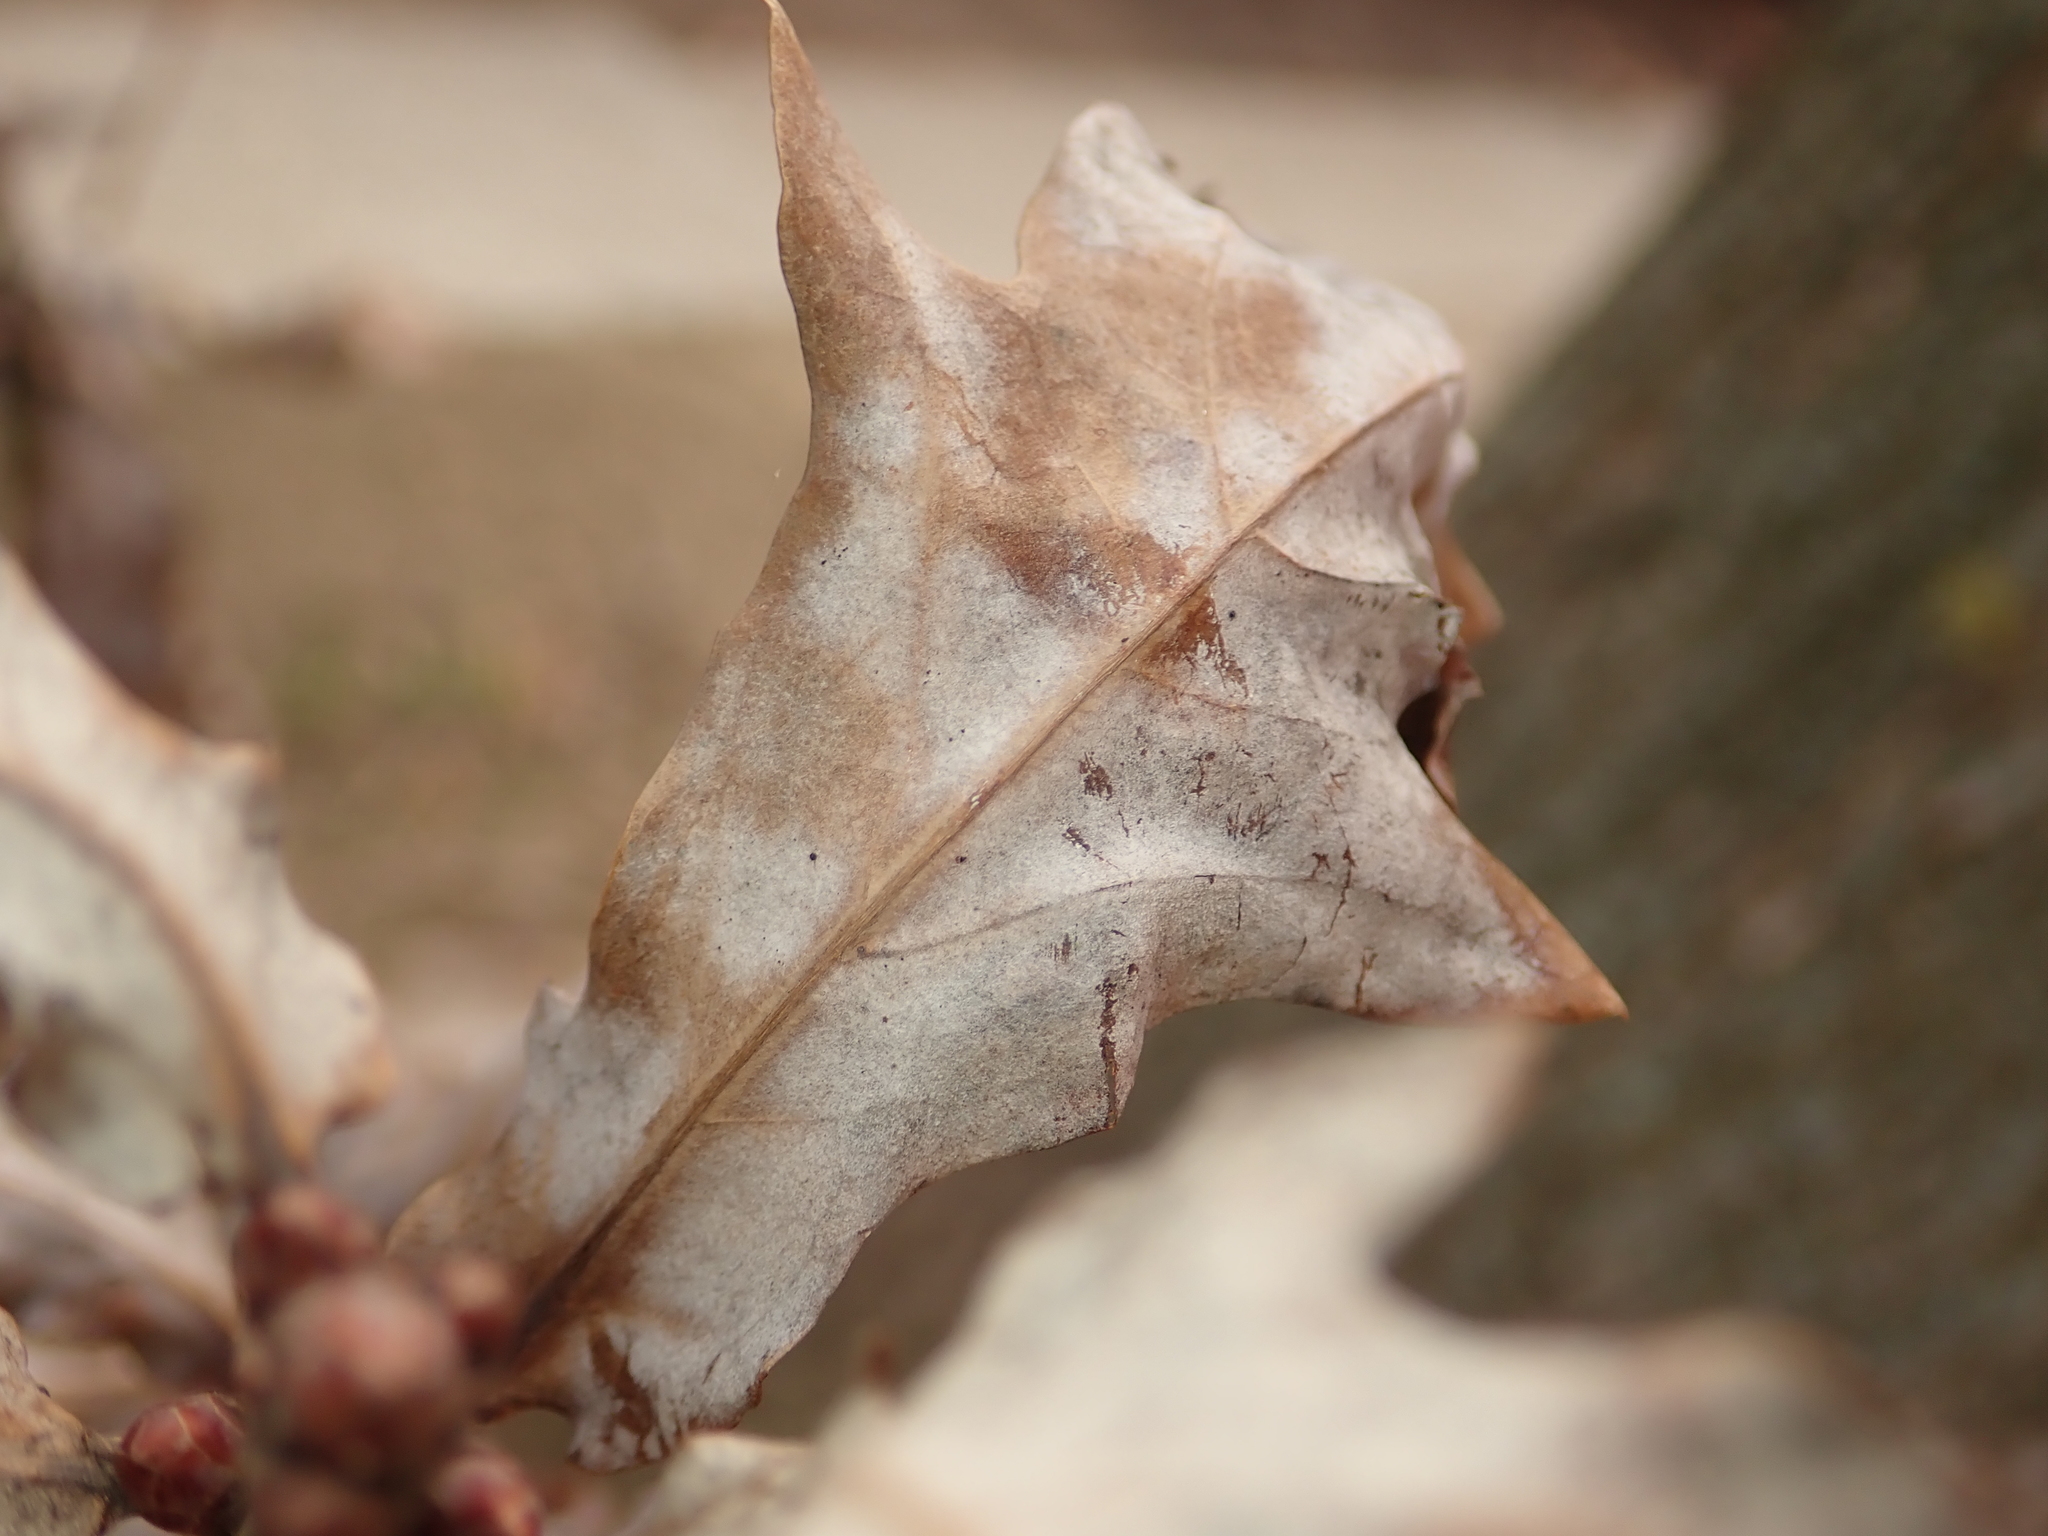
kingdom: Fungi
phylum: Ascomycota
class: Leotiomycetes
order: Helotiales
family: Erysiphaceae
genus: Erysiphe
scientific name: Erysiphe
